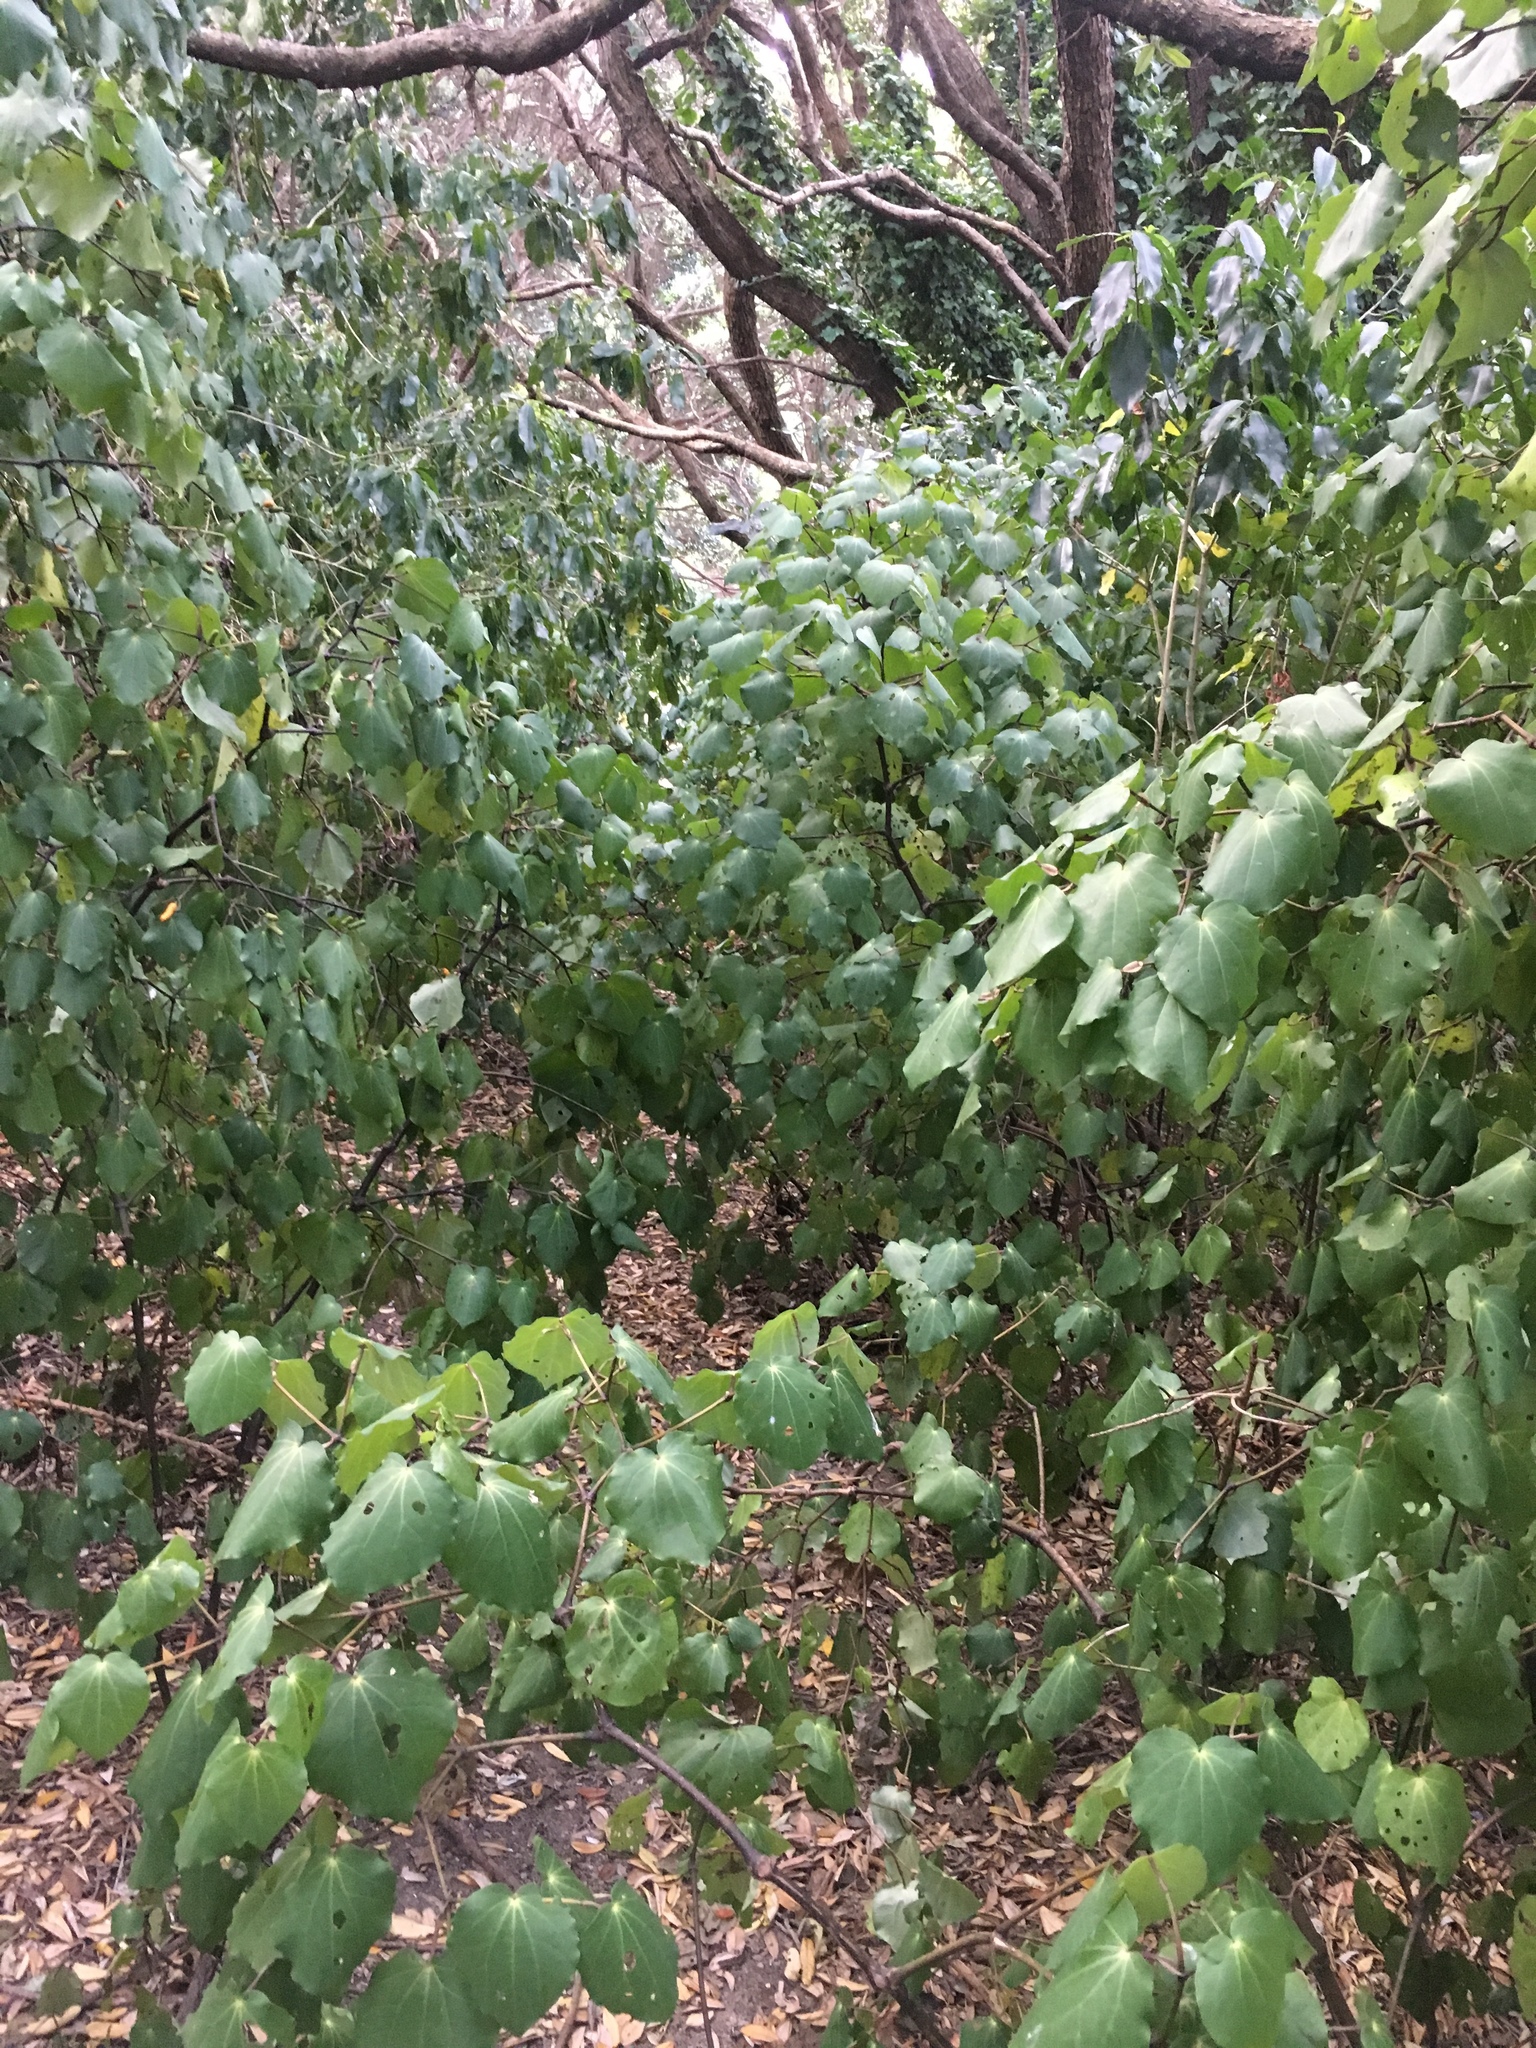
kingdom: Plantae
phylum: Tracheophyta
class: Magnoliopsida
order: Piperales
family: Piperaceae
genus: Macropiper
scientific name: Macropiper excelsum
